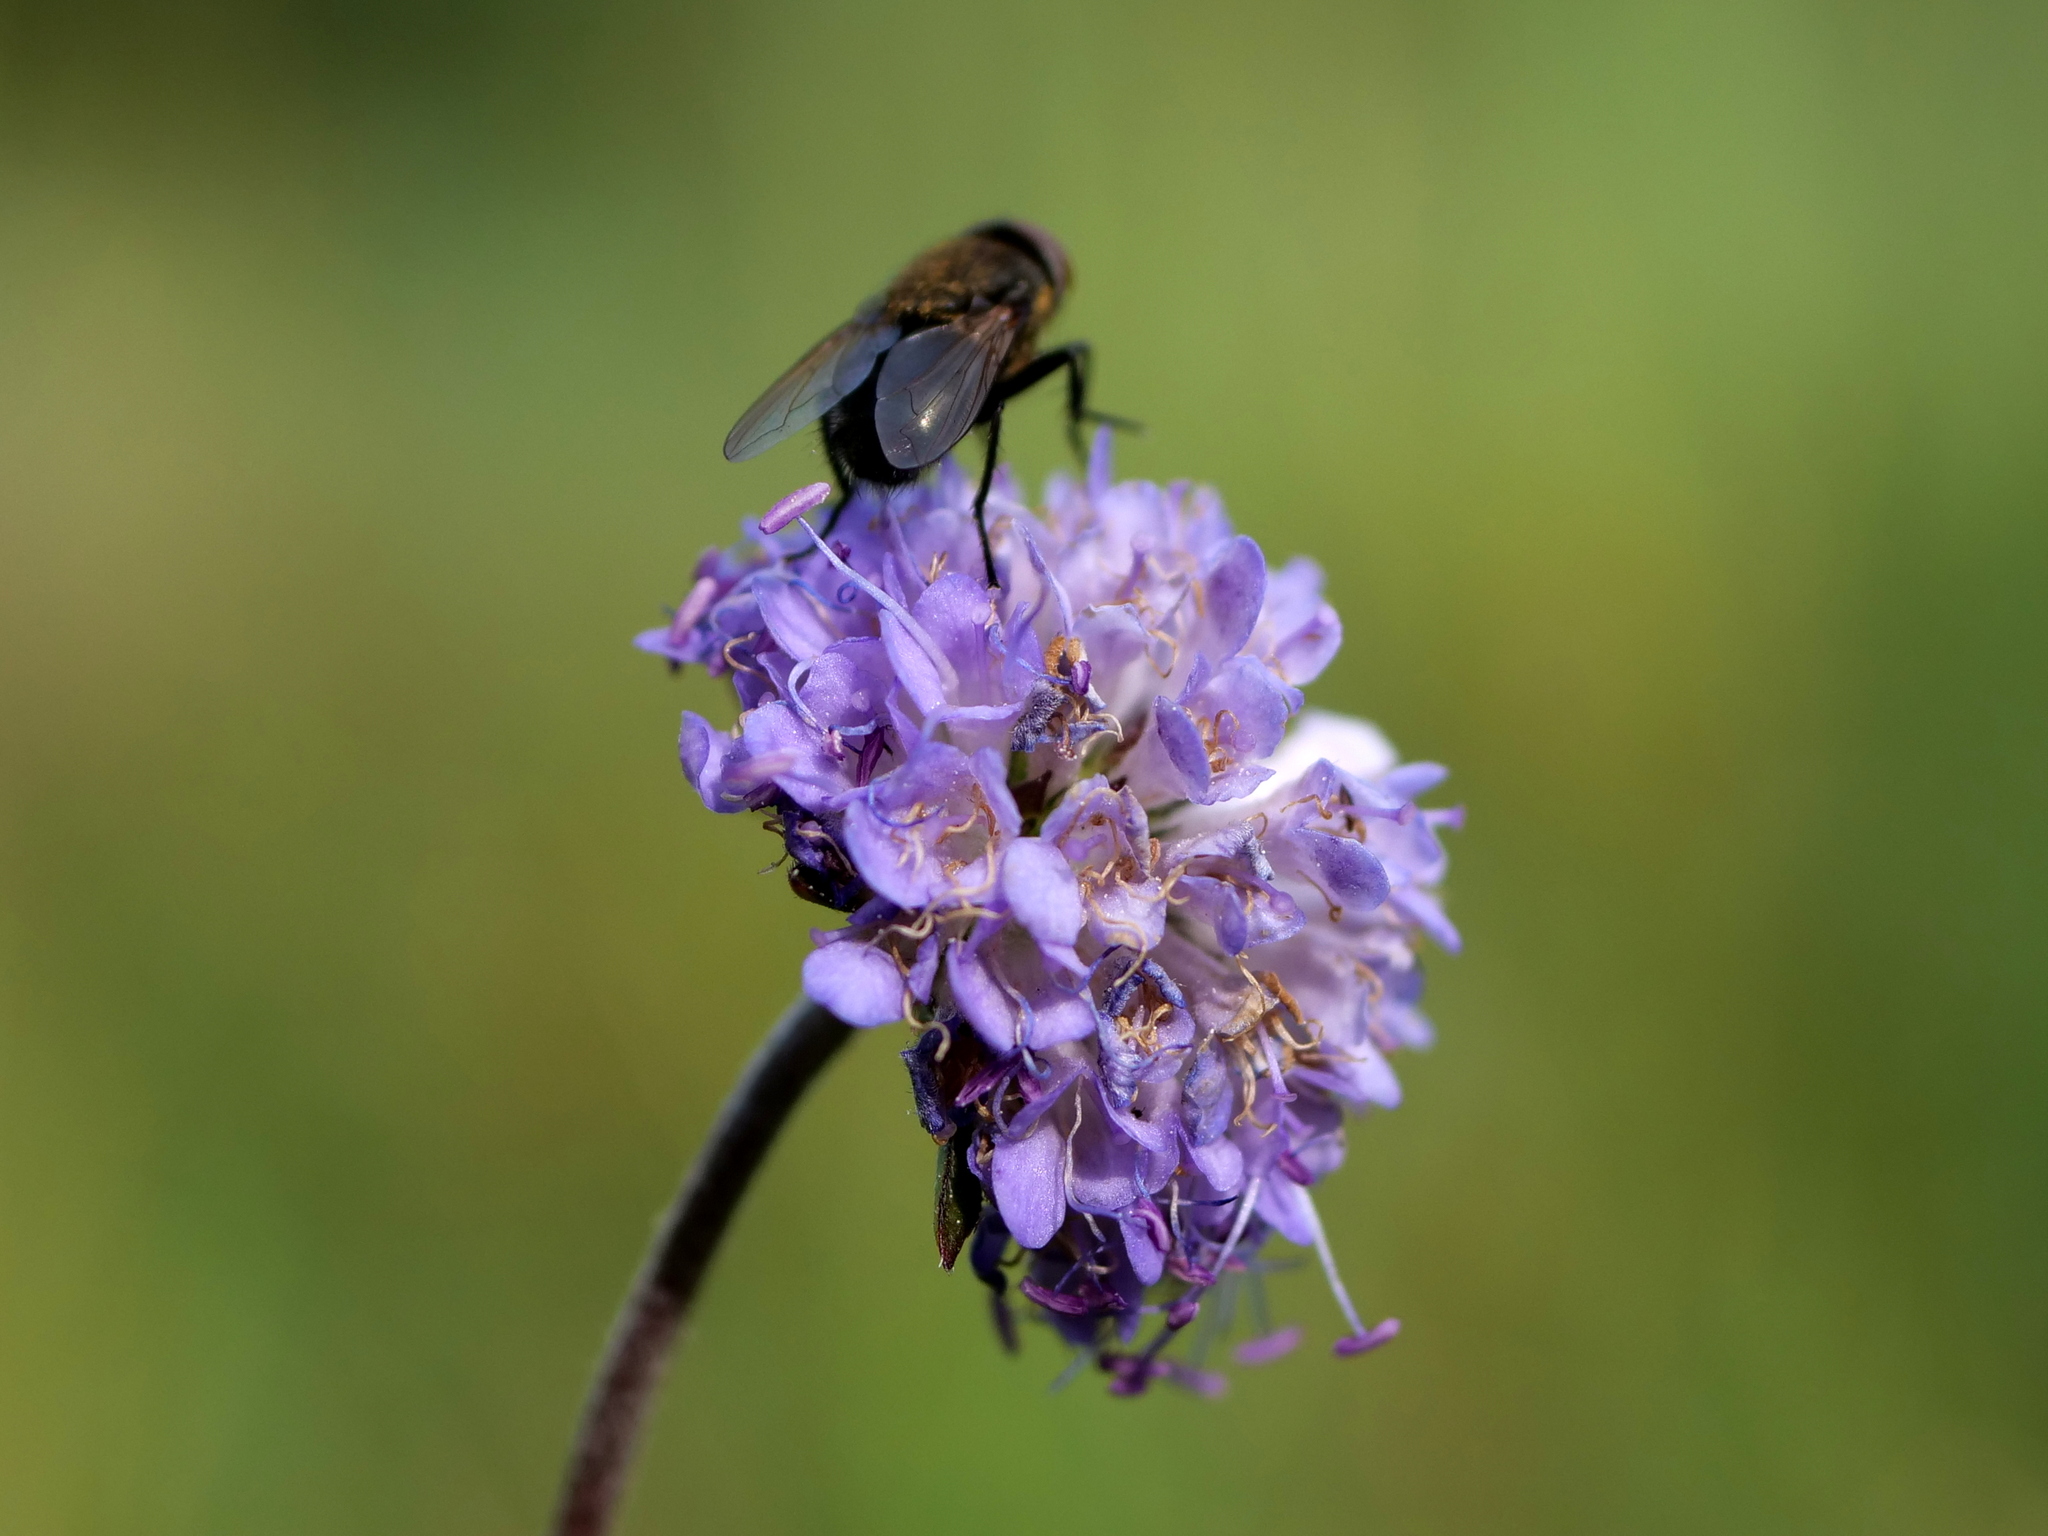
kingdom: Plantae
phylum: Tracheophyta
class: Magnoliopsida
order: Dipsacales
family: Caprifoliaceae
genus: Succisa
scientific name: Succisa pratensis
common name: Devil's-bit
